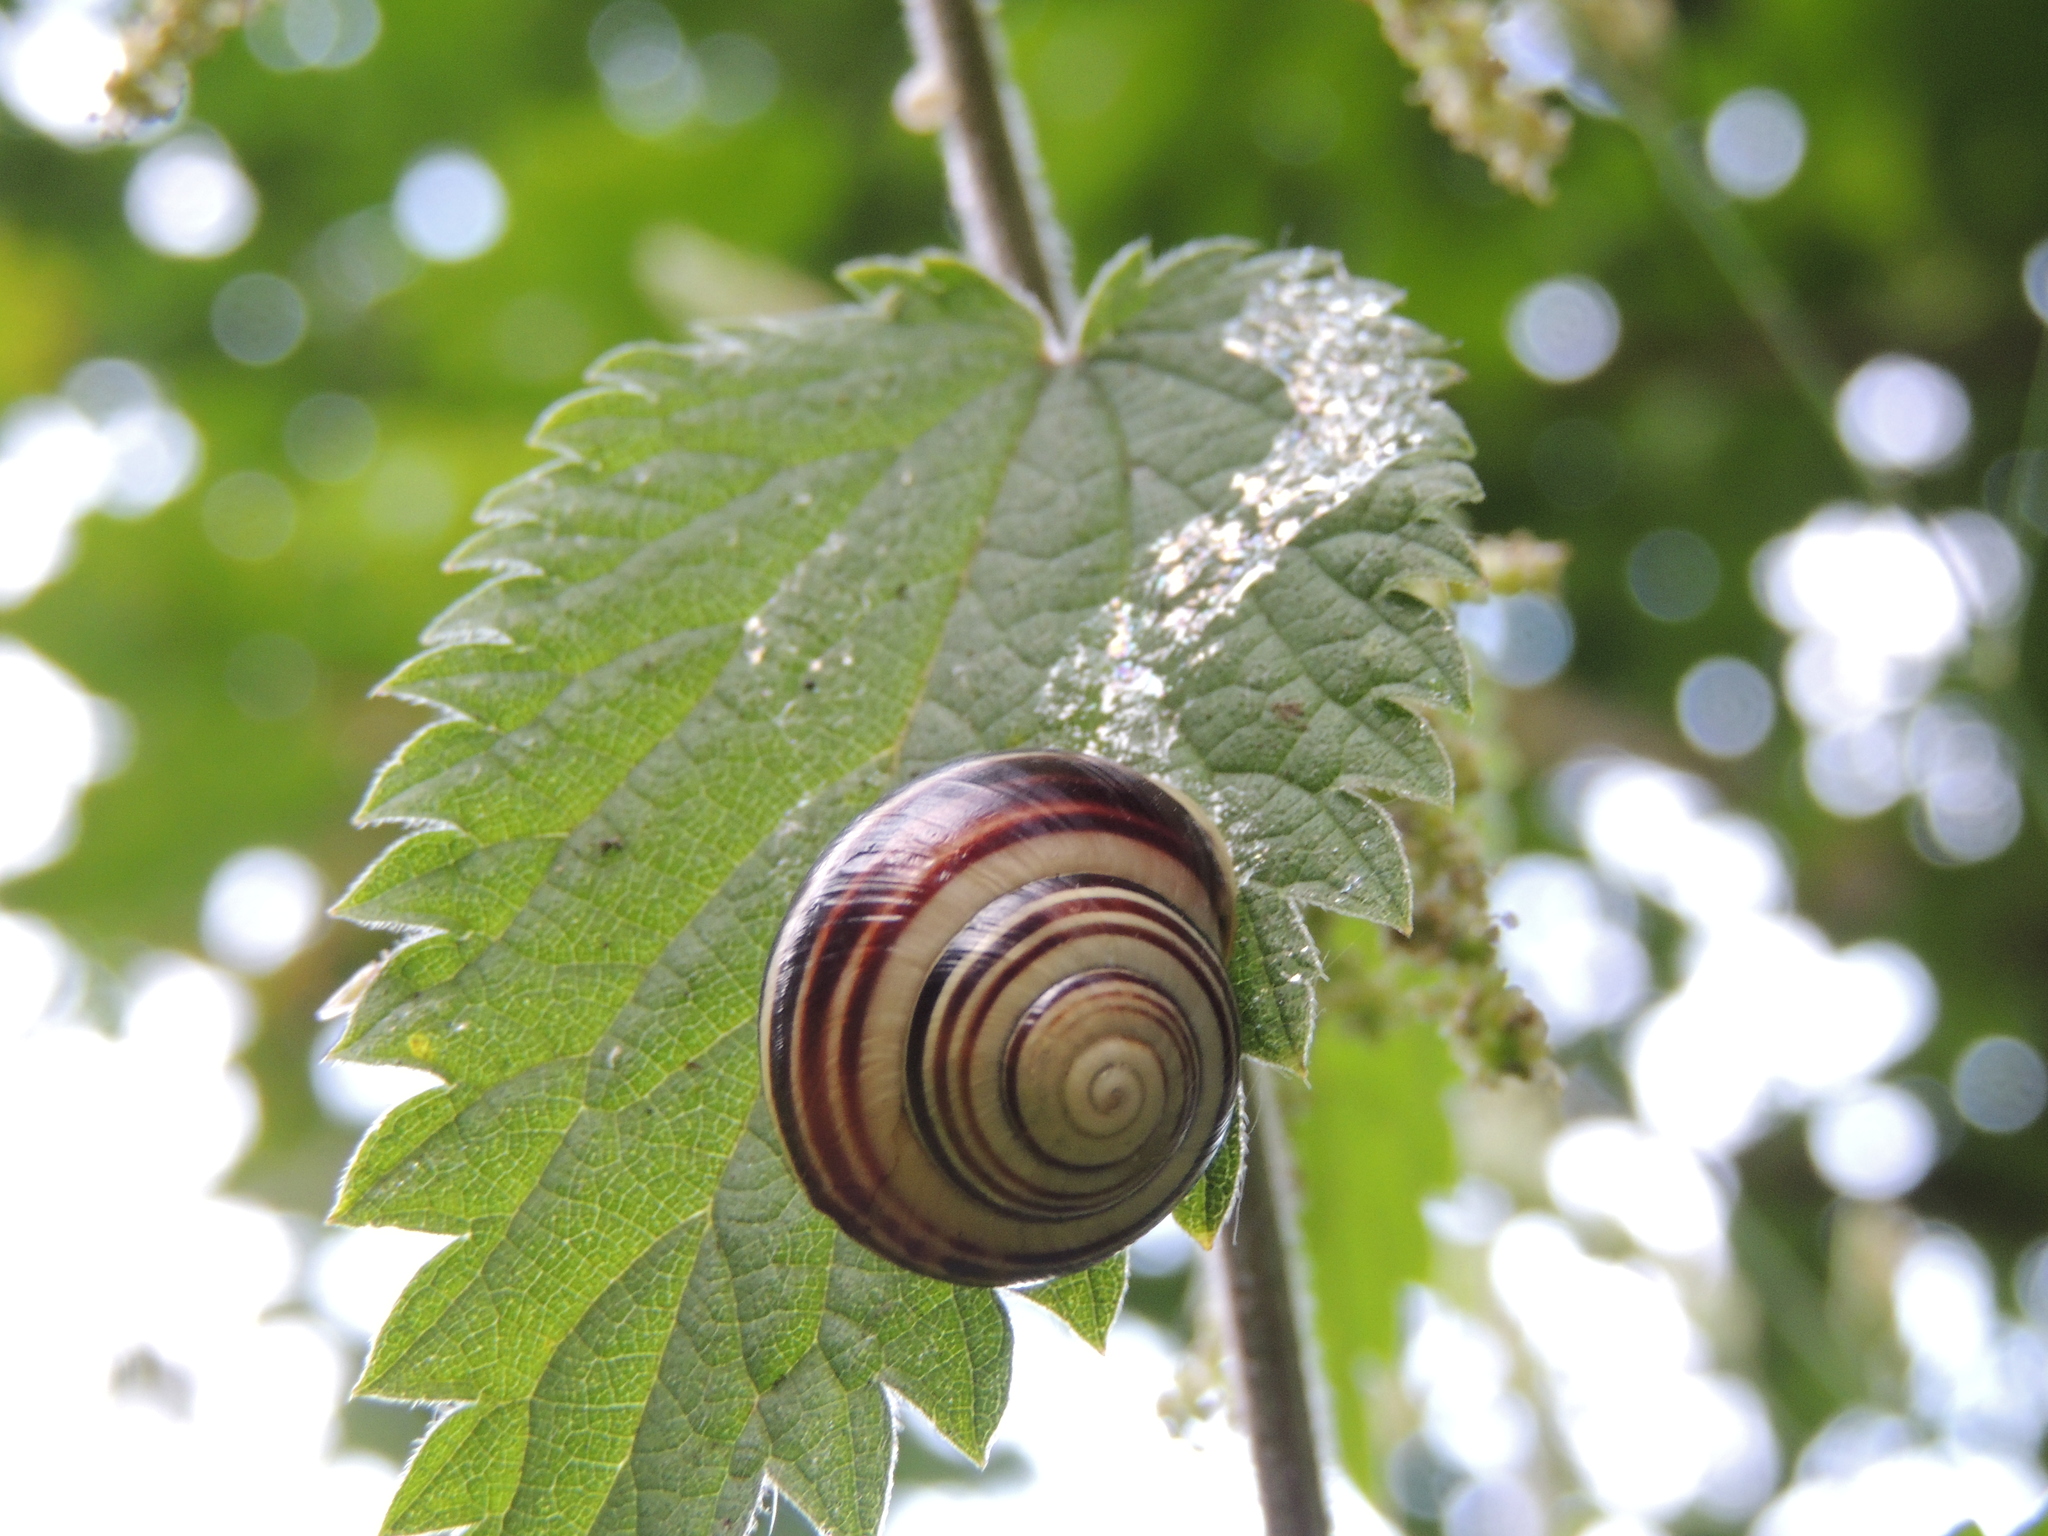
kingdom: Animalia
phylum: Mollusca
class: Gastropoda
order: Stylommatophora
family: Helicidae
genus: Cepaea
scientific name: Cepaea hortensis
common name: White-lip gardensnail
